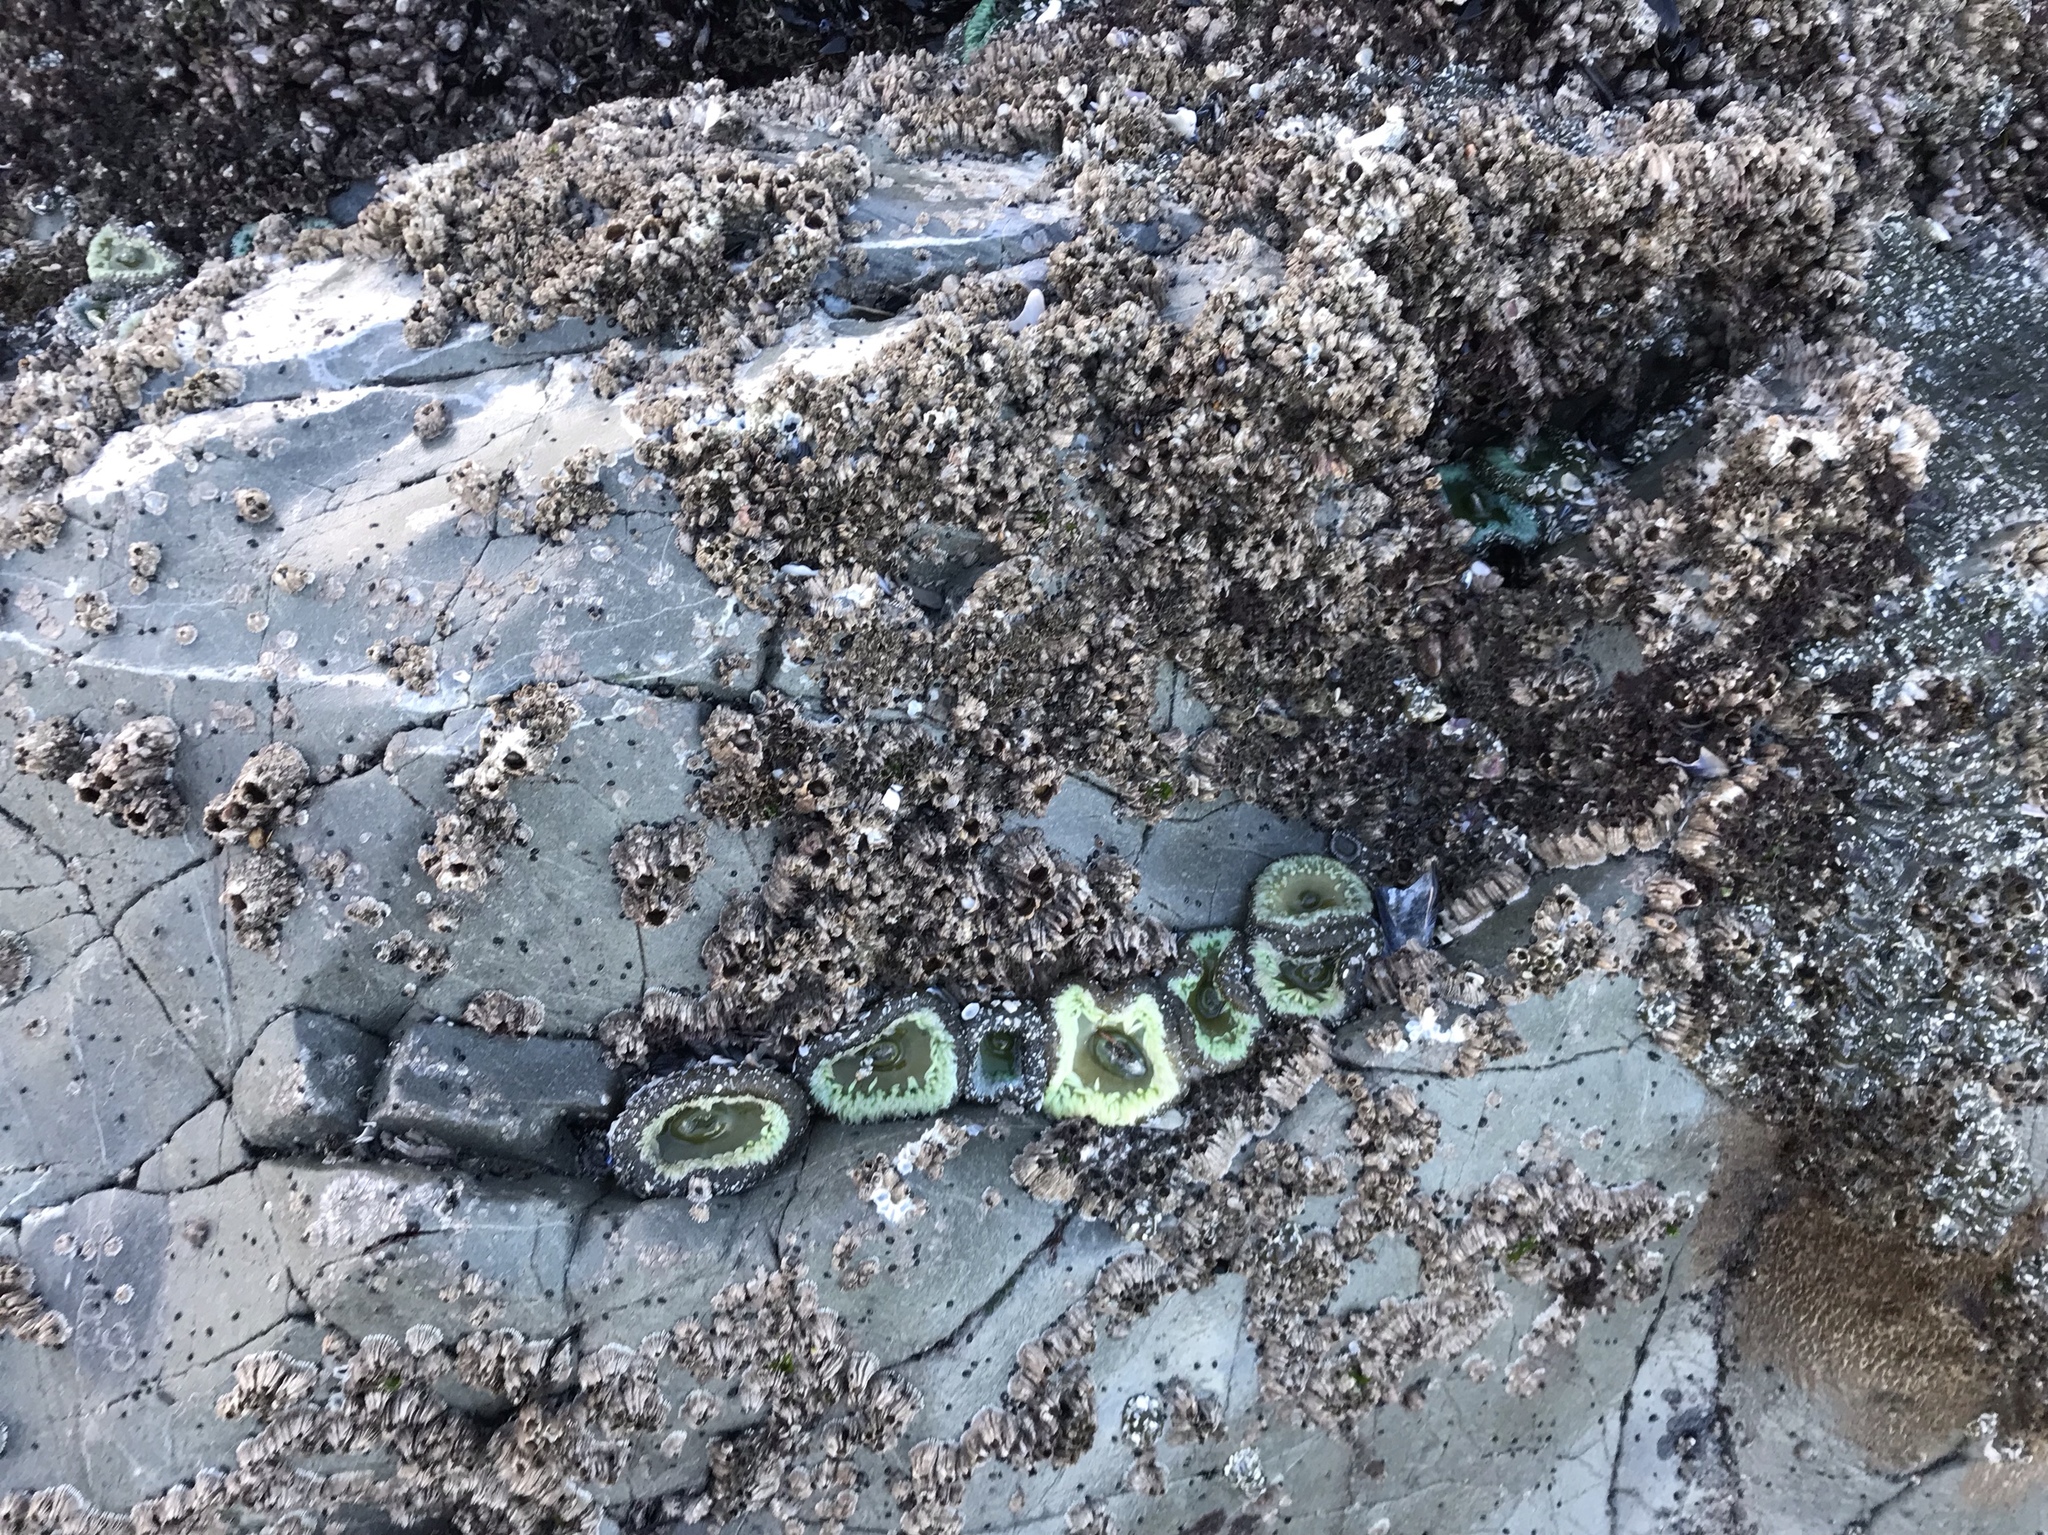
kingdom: Animalia
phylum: Cnidaria
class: Anthozoa
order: Actiniaria
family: Actiniidae
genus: Anthopleura
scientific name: Anthopleura xanthogrammica
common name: Giant green anemone
